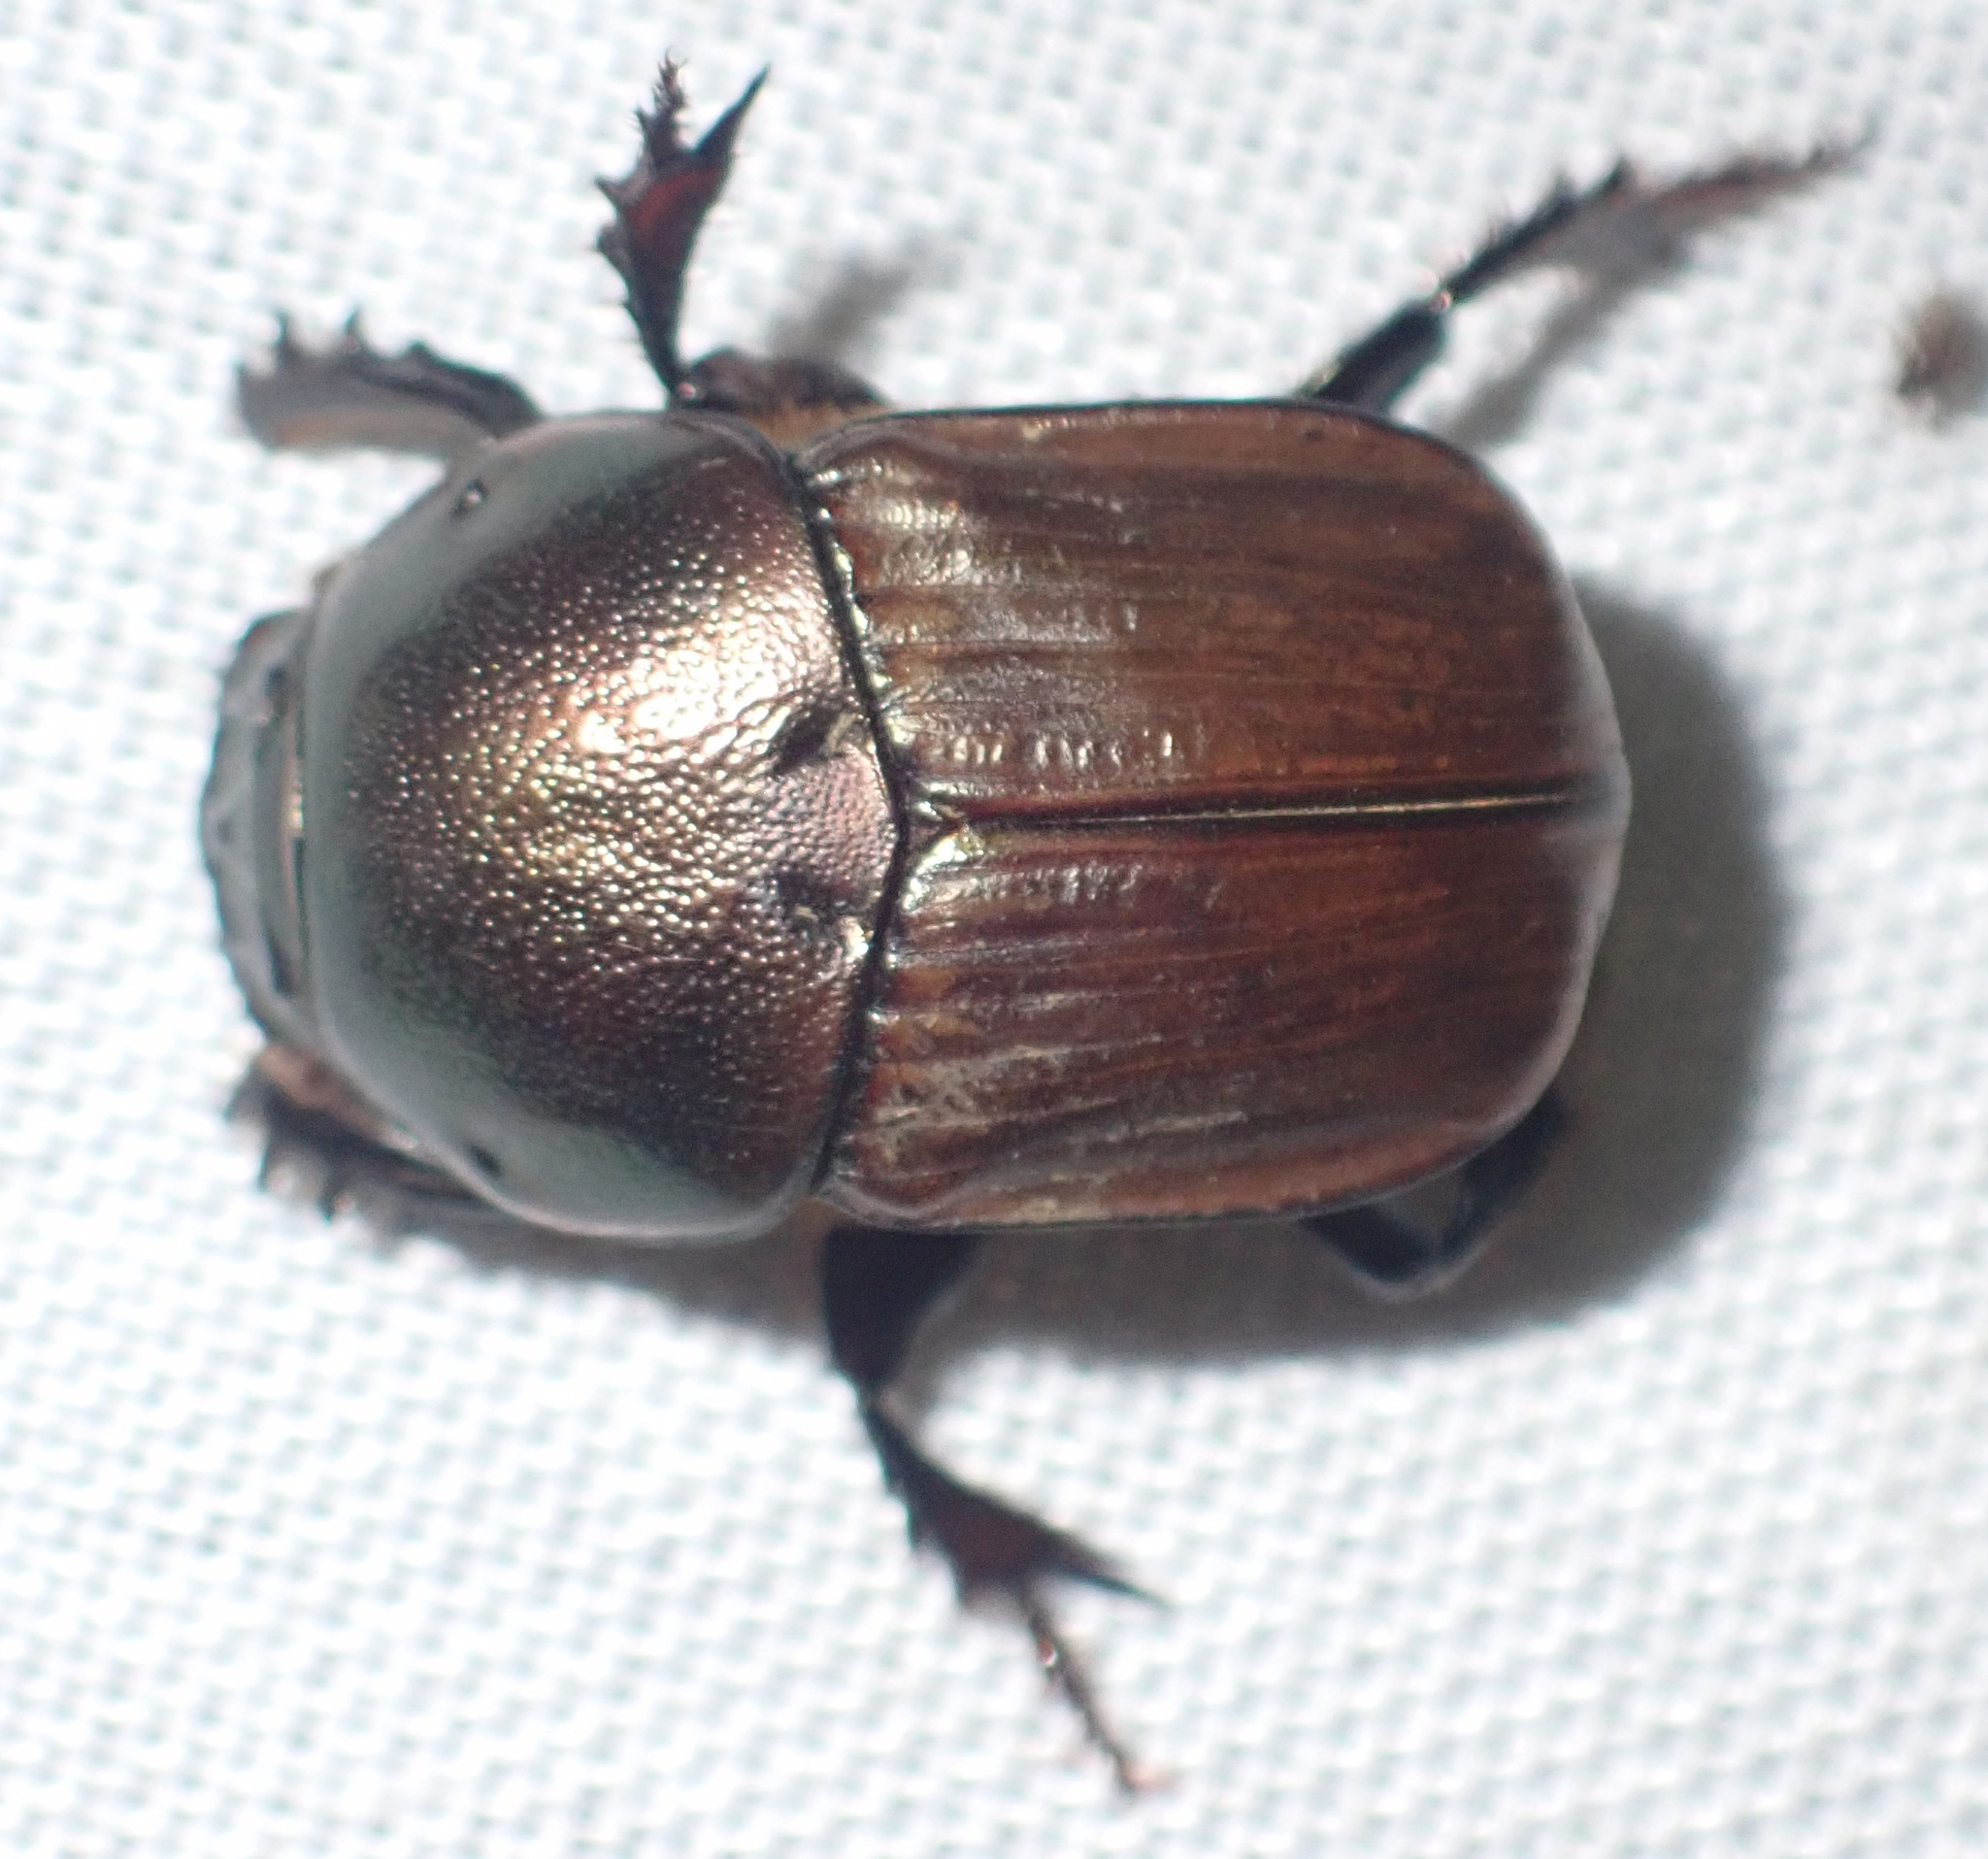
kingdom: Animalia
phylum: Arthropoda
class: Insecta
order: Coleoptera
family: Scarabaeidae
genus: Onitis
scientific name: Onitis alexis
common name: Alexis dung beetle
